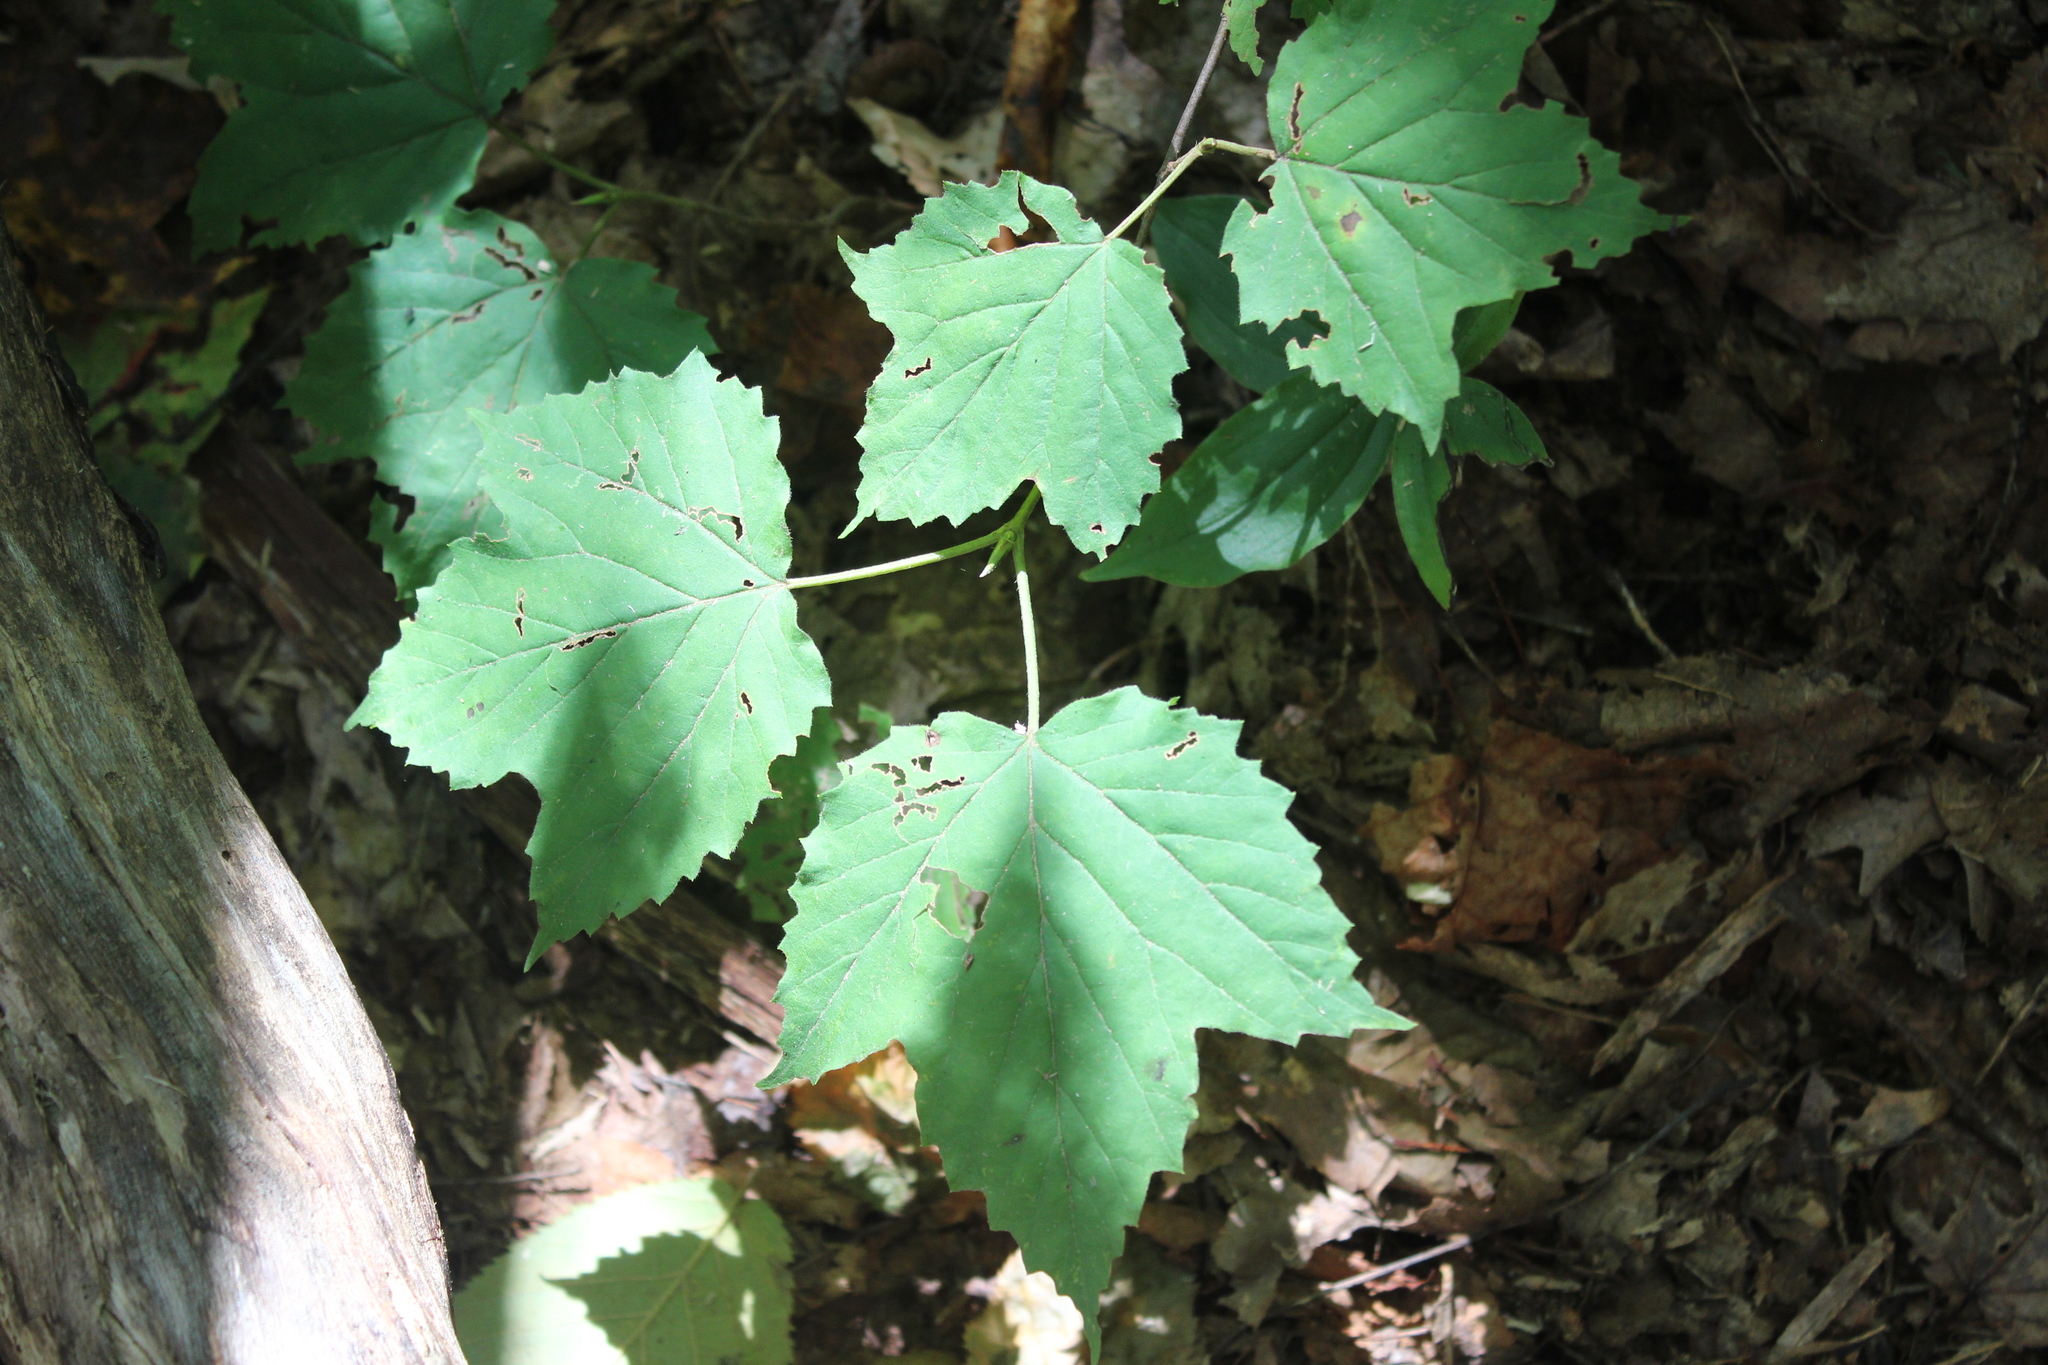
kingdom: Plantae
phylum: Tracheophyta
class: Magnoliopsida
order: Dipsacales
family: Viburnaceae
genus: Viburnum
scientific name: Viburnum acerifolium
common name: Dockmackie
